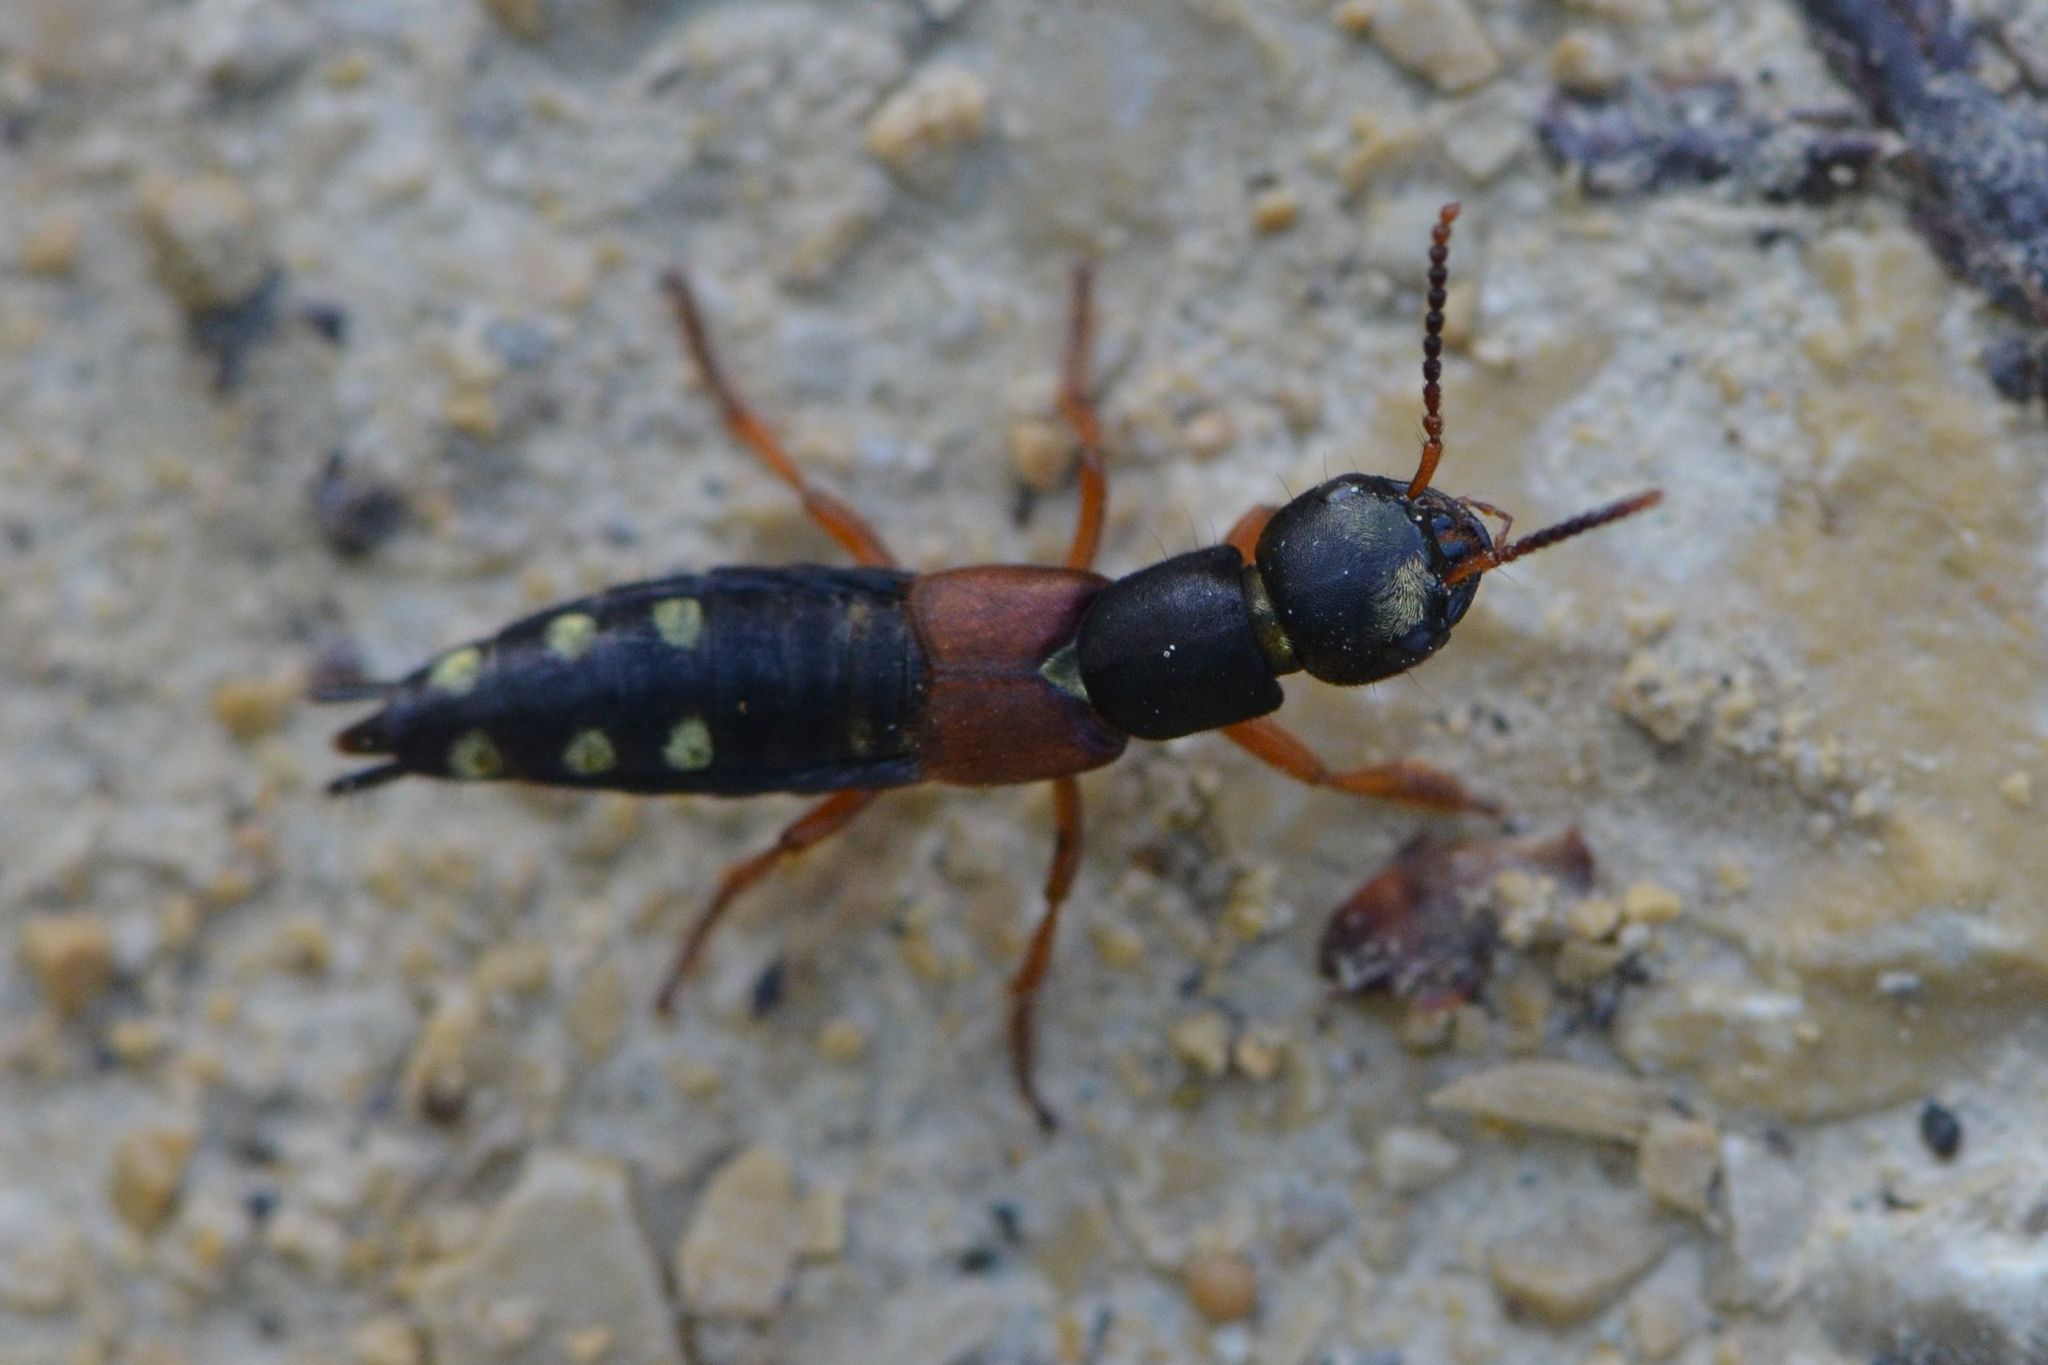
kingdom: Animalia
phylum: Arthropoda
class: Insecta
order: Coleoptera
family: Staphylinidae
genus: Staphylinus
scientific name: Staphylinus erythropterus
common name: Staph beetle
